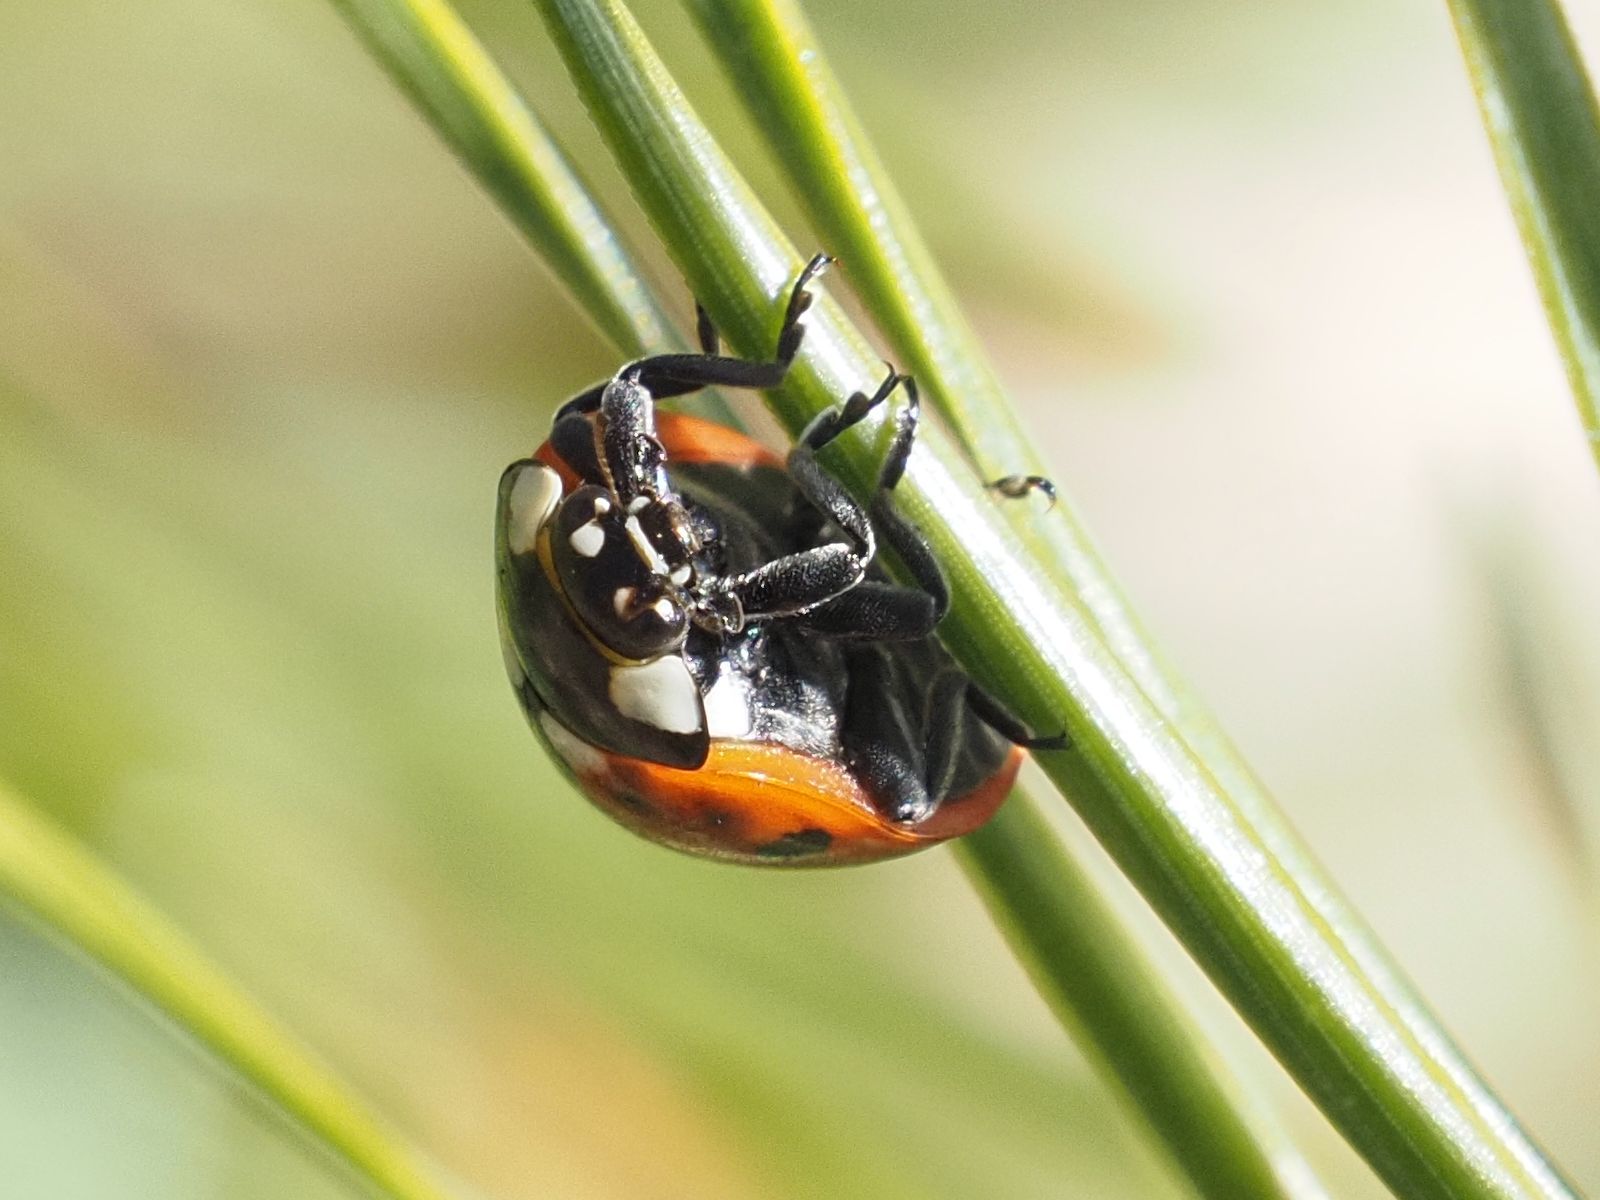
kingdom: Animalia
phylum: Arthropoda
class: Insecta
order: Coleoptera
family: Coccinellidae
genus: Coccinella
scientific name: Coccinella septempunctata
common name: Sevenspotted lady beetle
